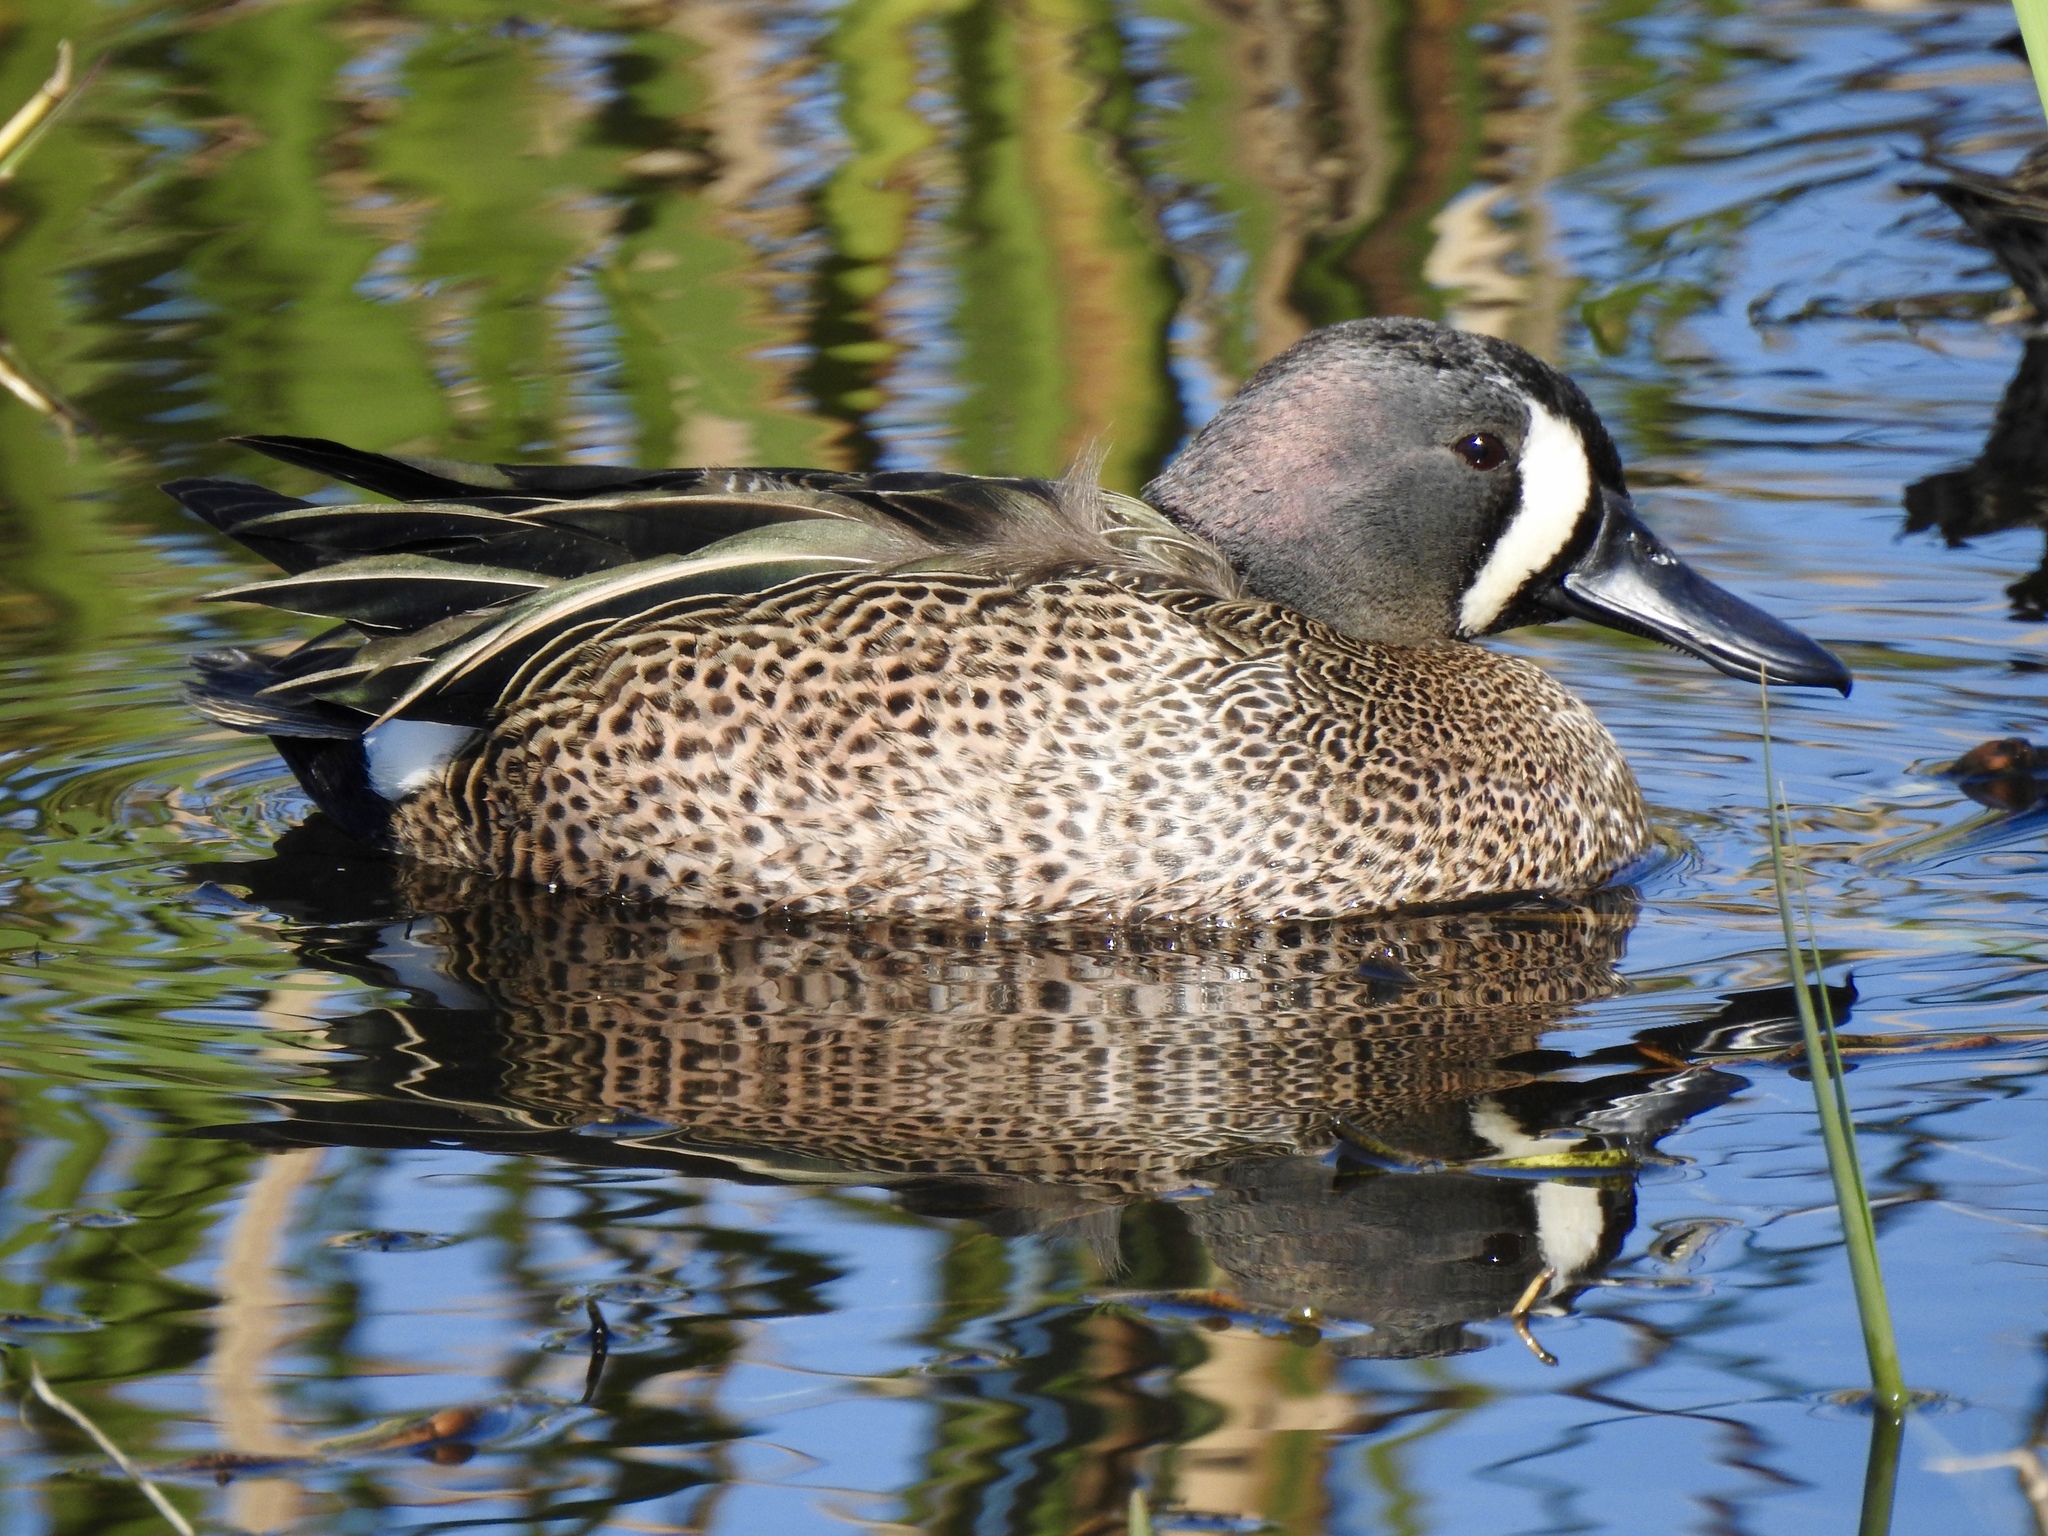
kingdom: Animalia
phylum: Chordata
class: Aves
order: Anseriformes
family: Anatidae
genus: Spatula
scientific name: Spatula discors
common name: Blue-winged teal
